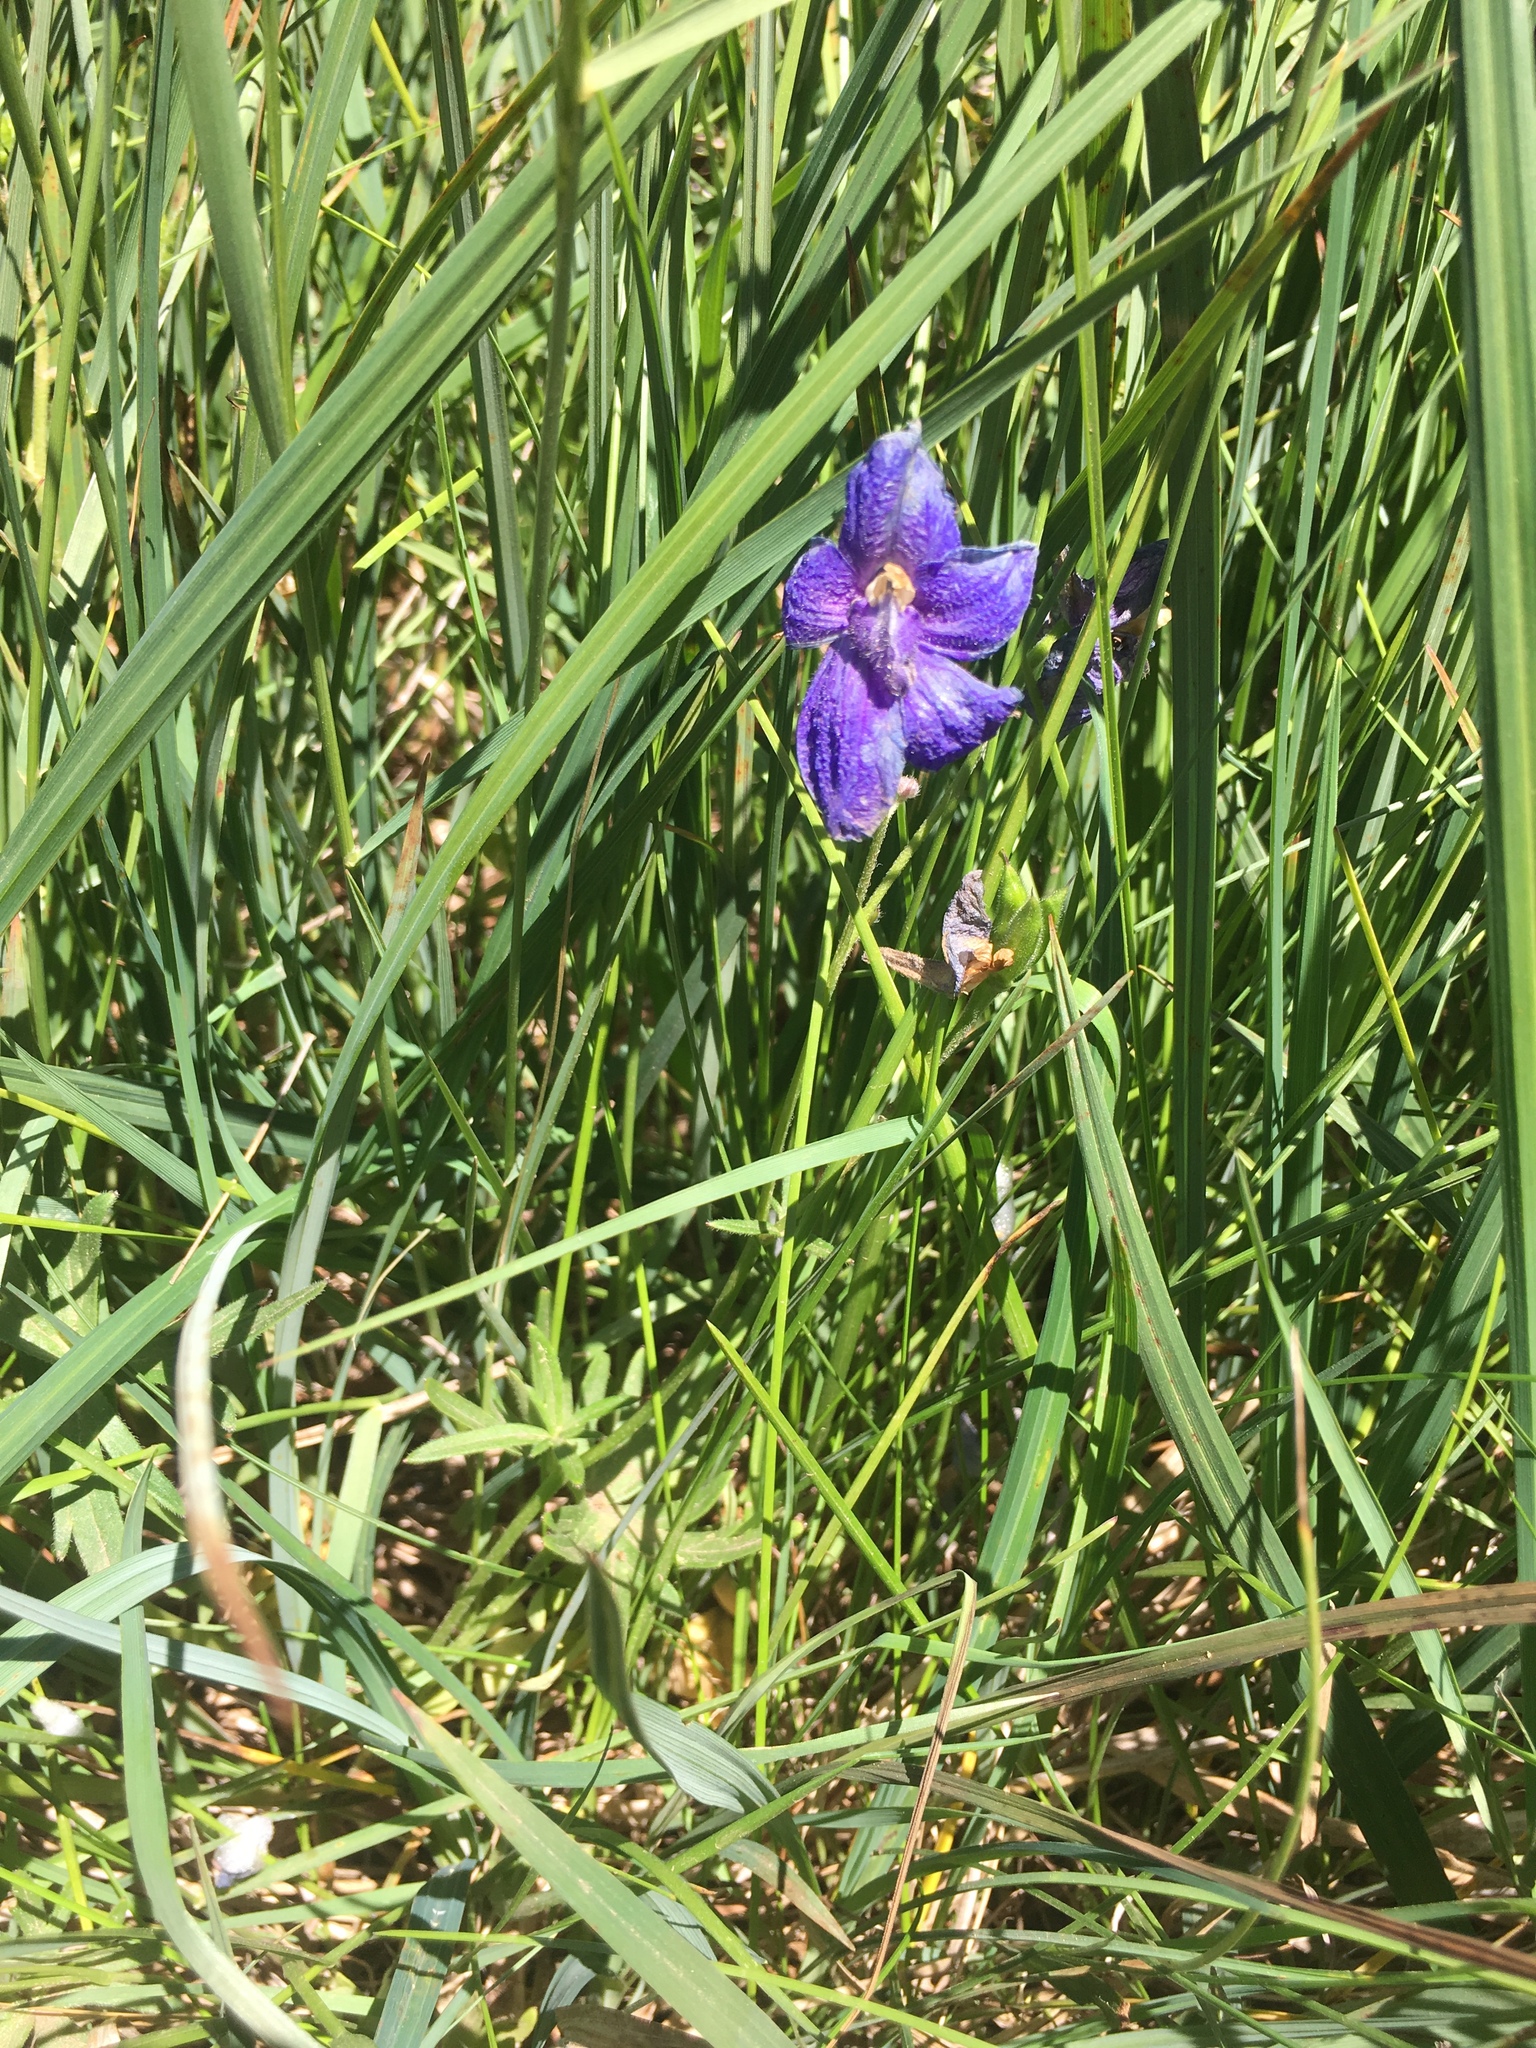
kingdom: Plantae
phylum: Tracheophyta
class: Magnoliopsida
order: Ranunculales
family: Ranunculaceae
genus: Delphinium
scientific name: Delphinium menziesii
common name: Menzies's larkspur
